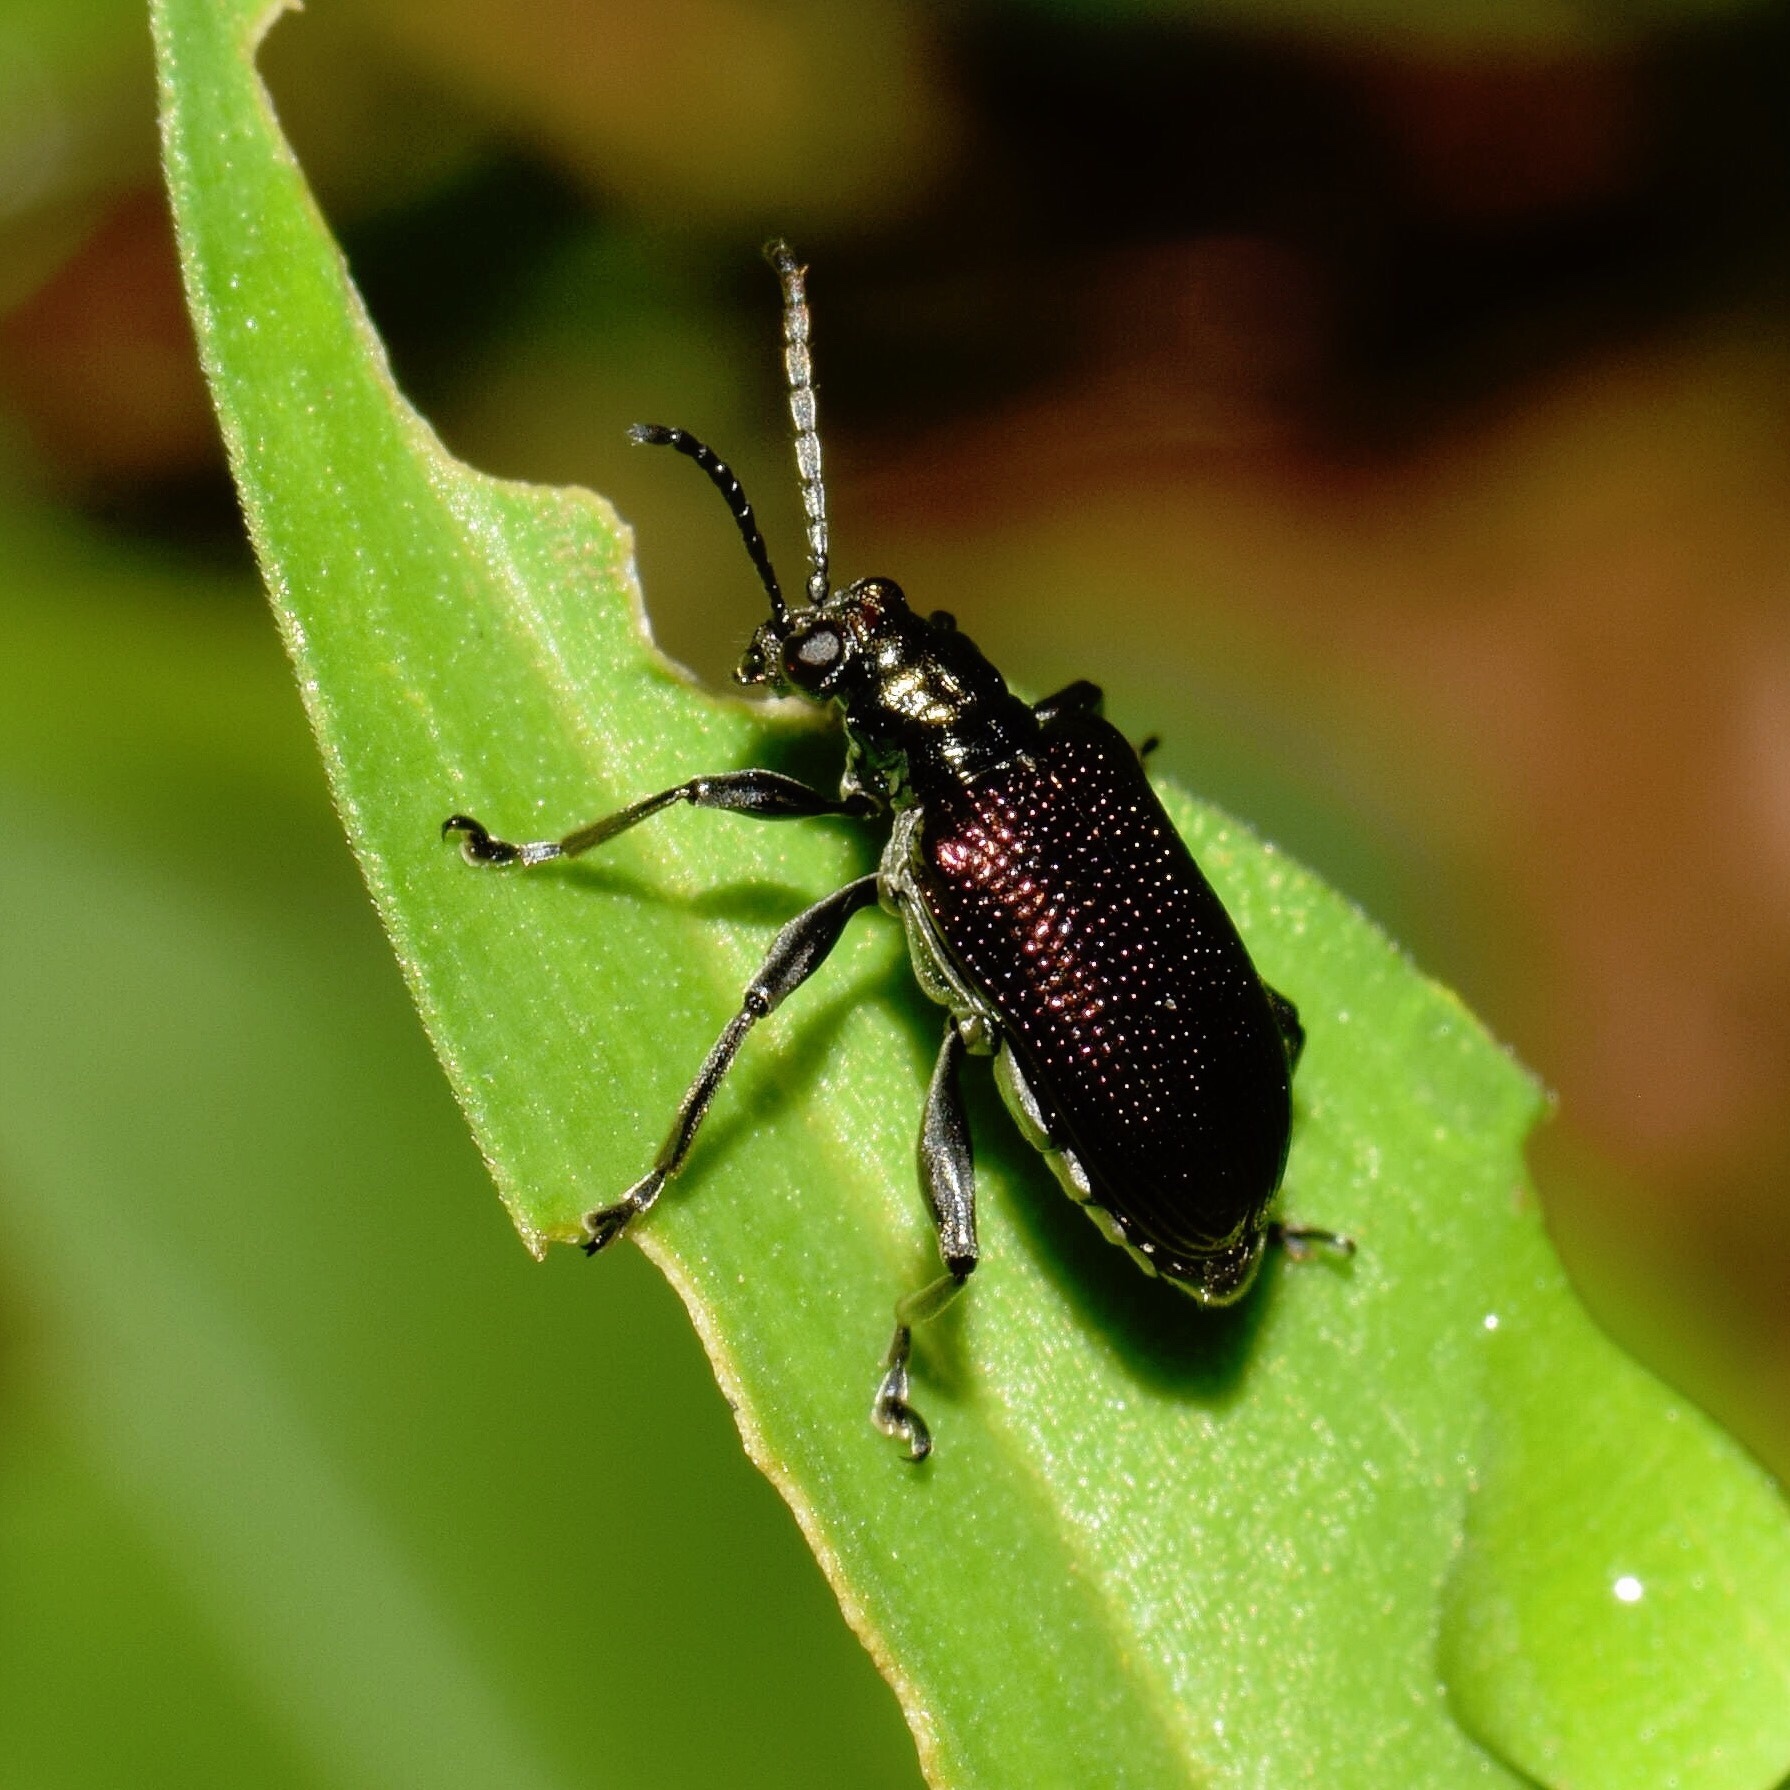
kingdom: Animalia
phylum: Arthropoda
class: Insecta
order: Coleoptera
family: Chrysomelidae
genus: Lema
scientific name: Lema
